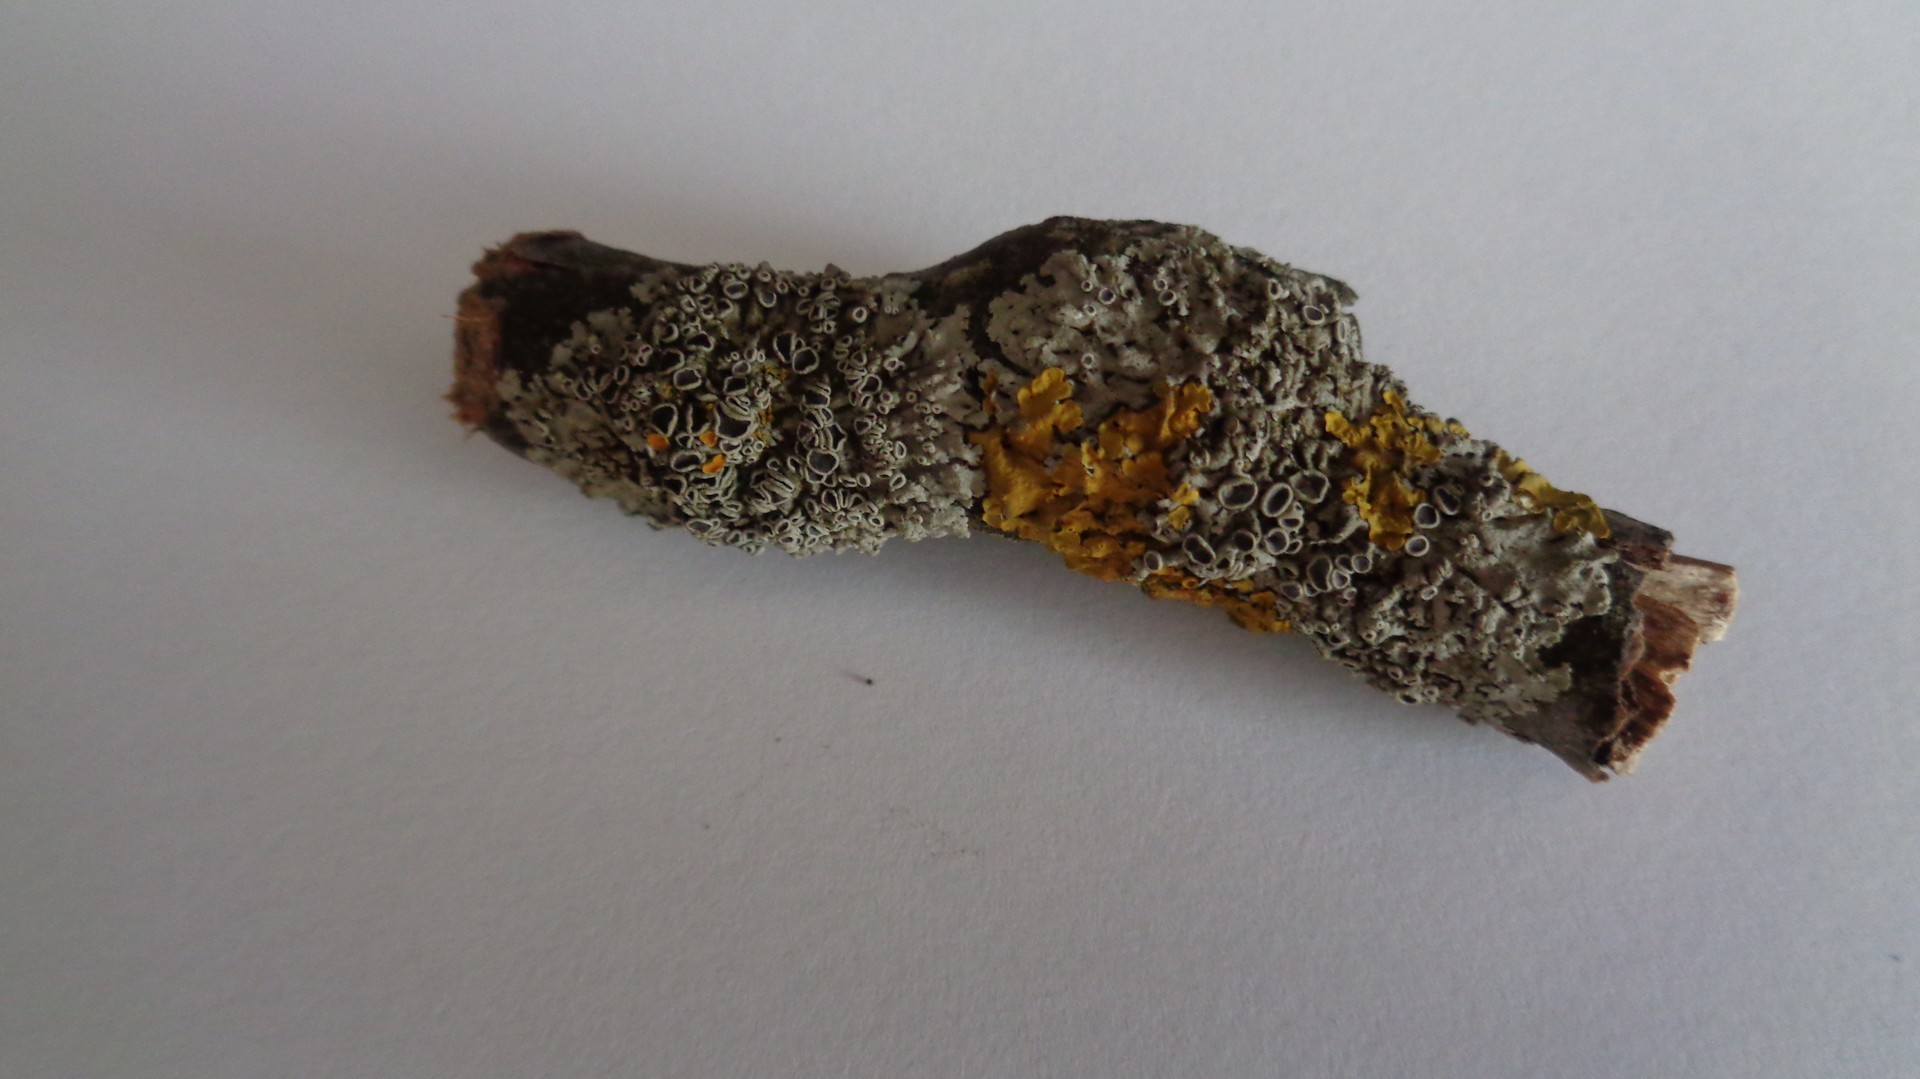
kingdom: Fungi
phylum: Ascomycota
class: Lecanoromycetes
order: Caliciales
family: Physciaceae
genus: Physcia
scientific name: Physcia stellaris
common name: Star rosette lichen
